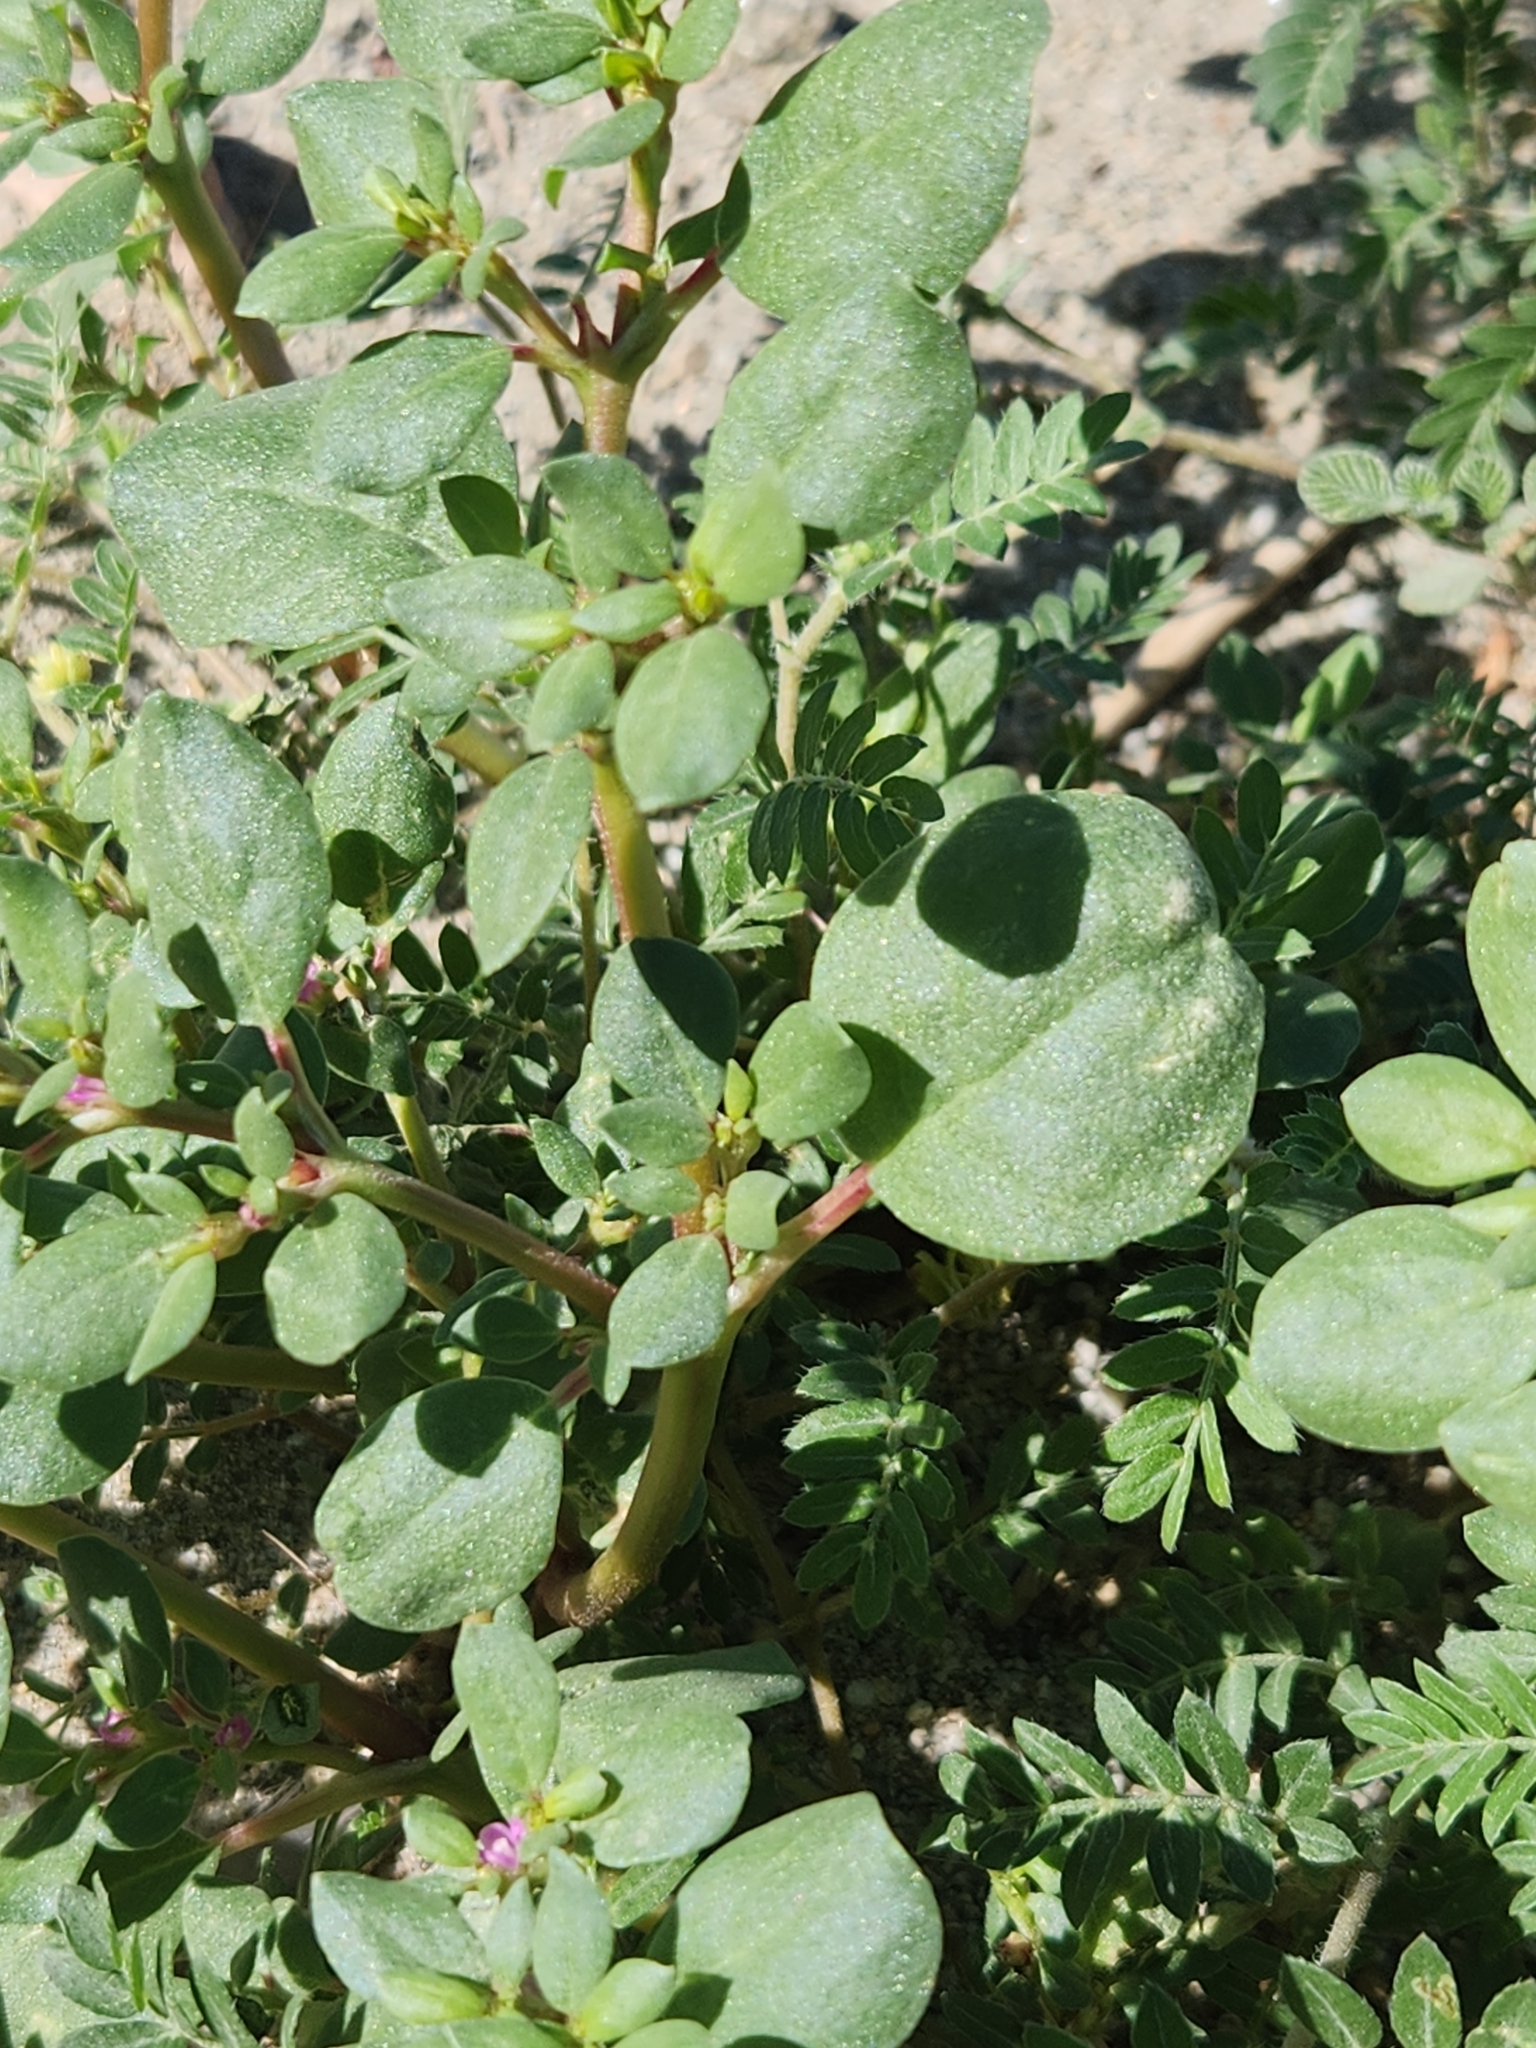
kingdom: Plantae
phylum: Tracheophyta
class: Magnoliopsida
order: Caryophyllales
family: Aizoaceae
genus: Trianthema
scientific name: Trianthema portulacastrum
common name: Desert horsepurslane
